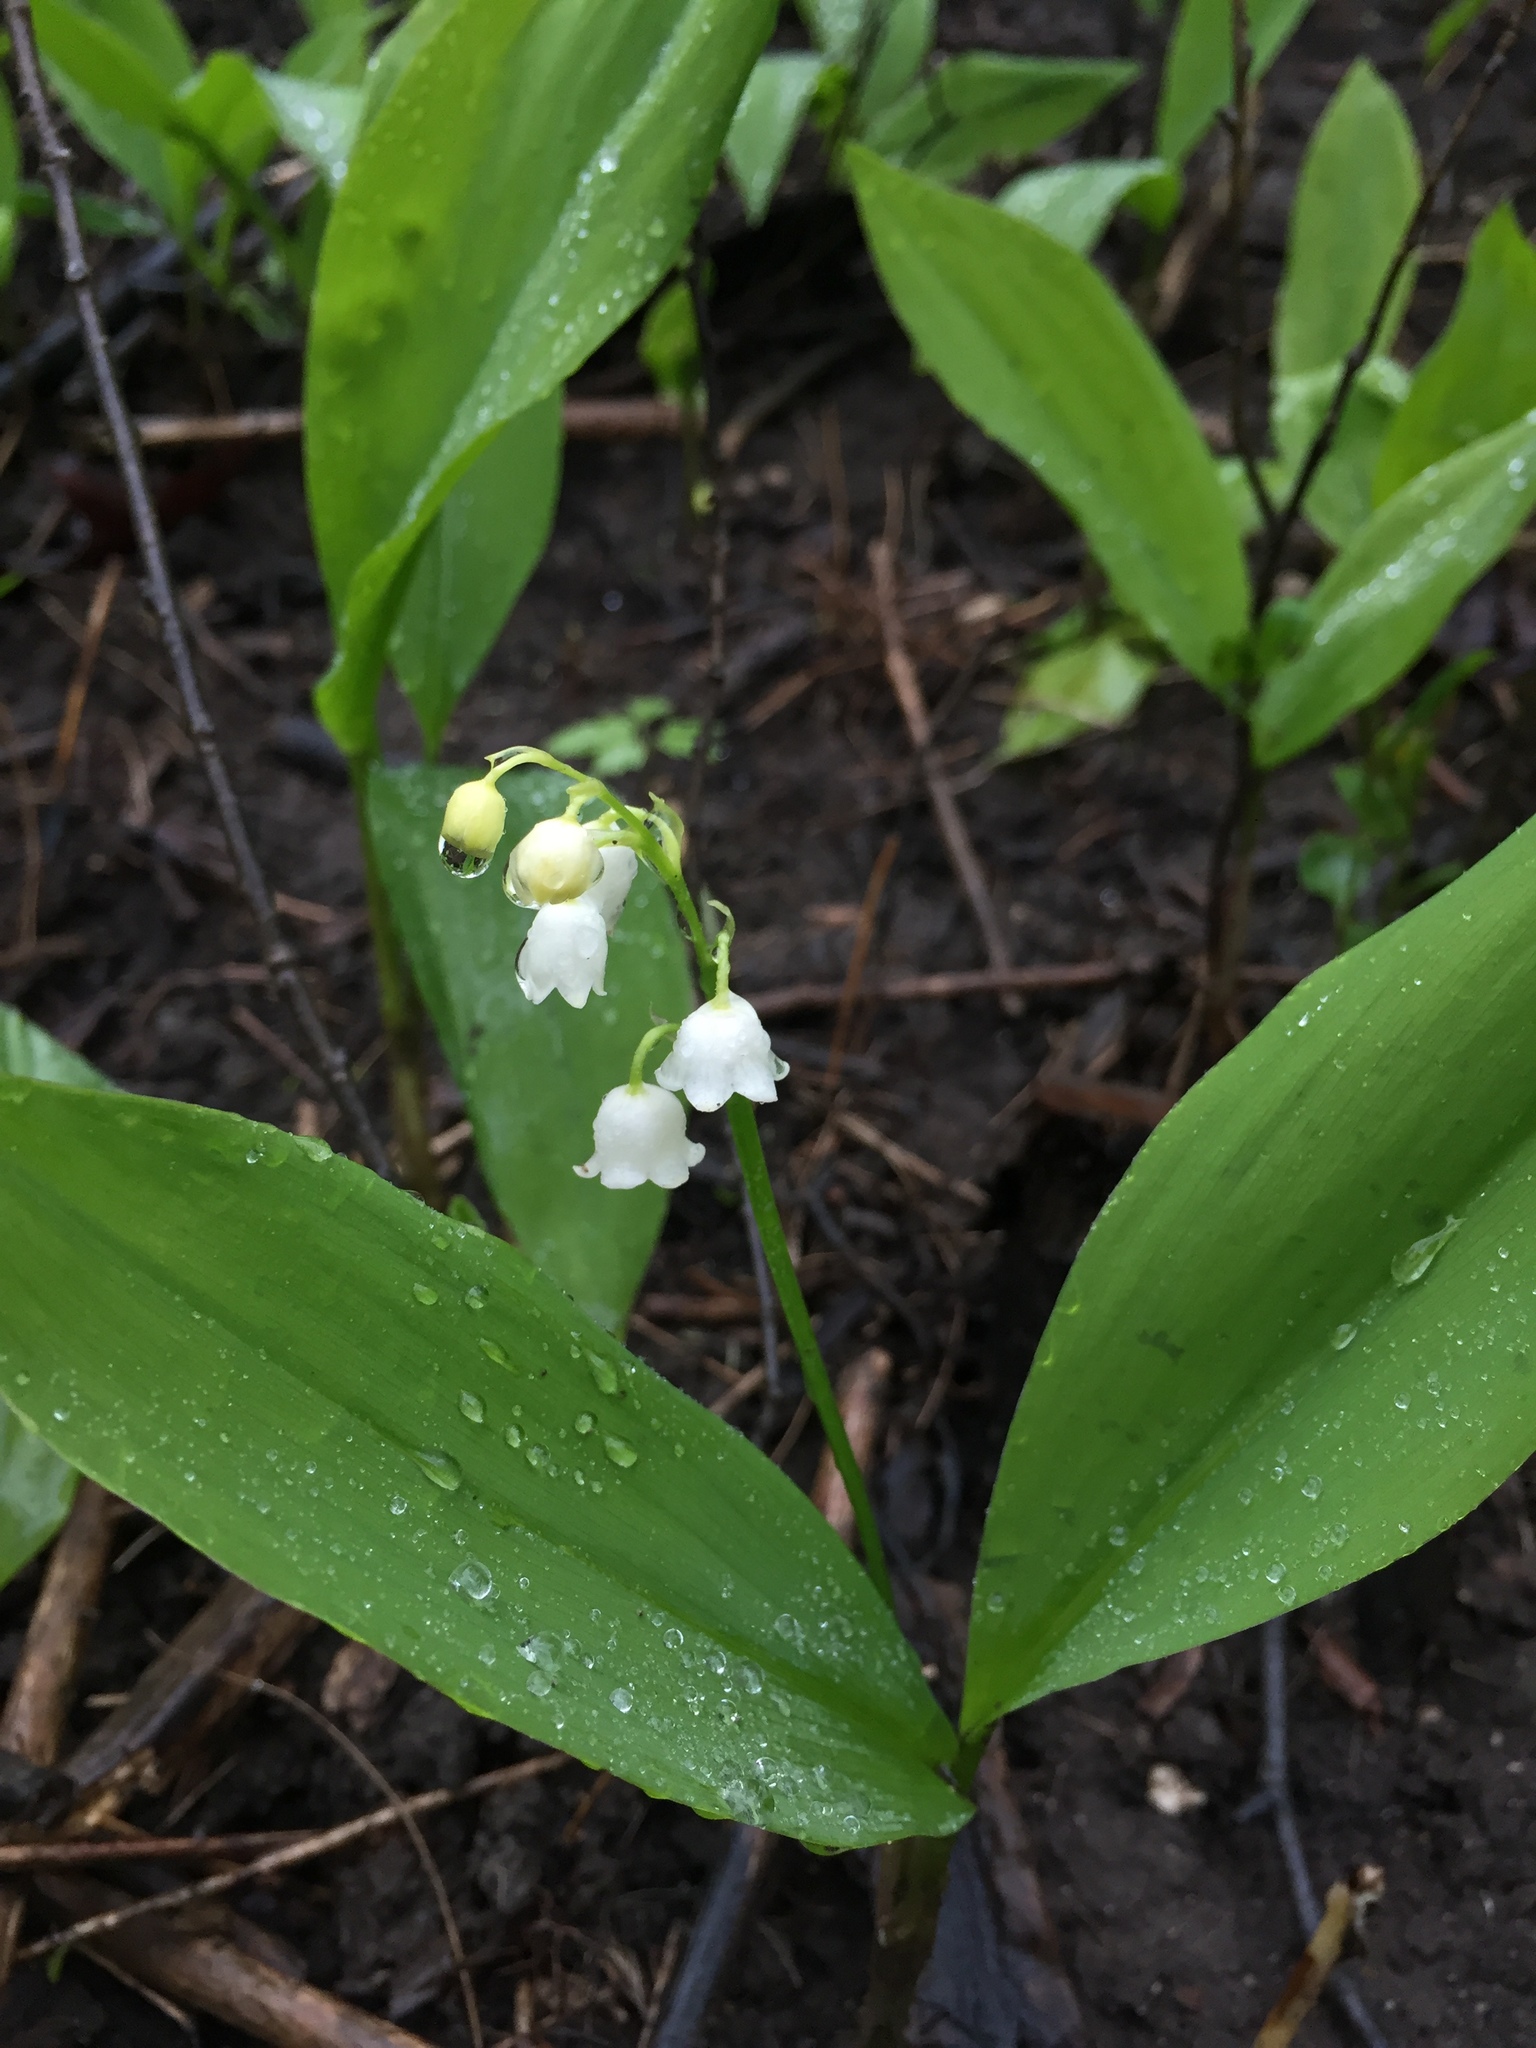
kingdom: Plantae
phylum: Tracheophyta
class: Liliopsida
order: Asparagales
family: Asparagaceae
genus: Convallaria
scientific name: Convallaria majalis
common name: Lily-of-the-valley
